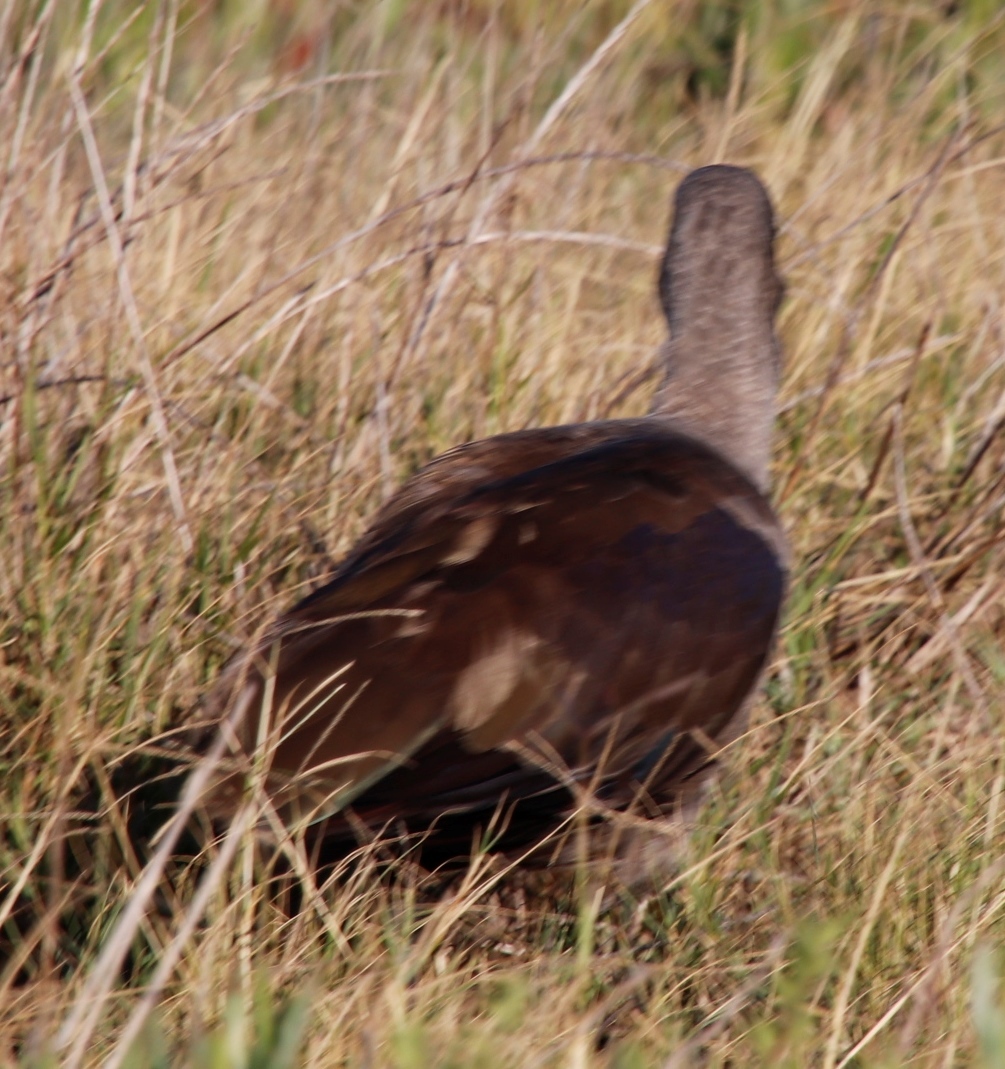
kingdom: Animalia
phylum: Chordata
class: Aves
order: Pelecaniformes
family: Threskiornithidae
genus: Bostrychia
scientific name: Bostrychia hagedash
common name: Hadada ibis
